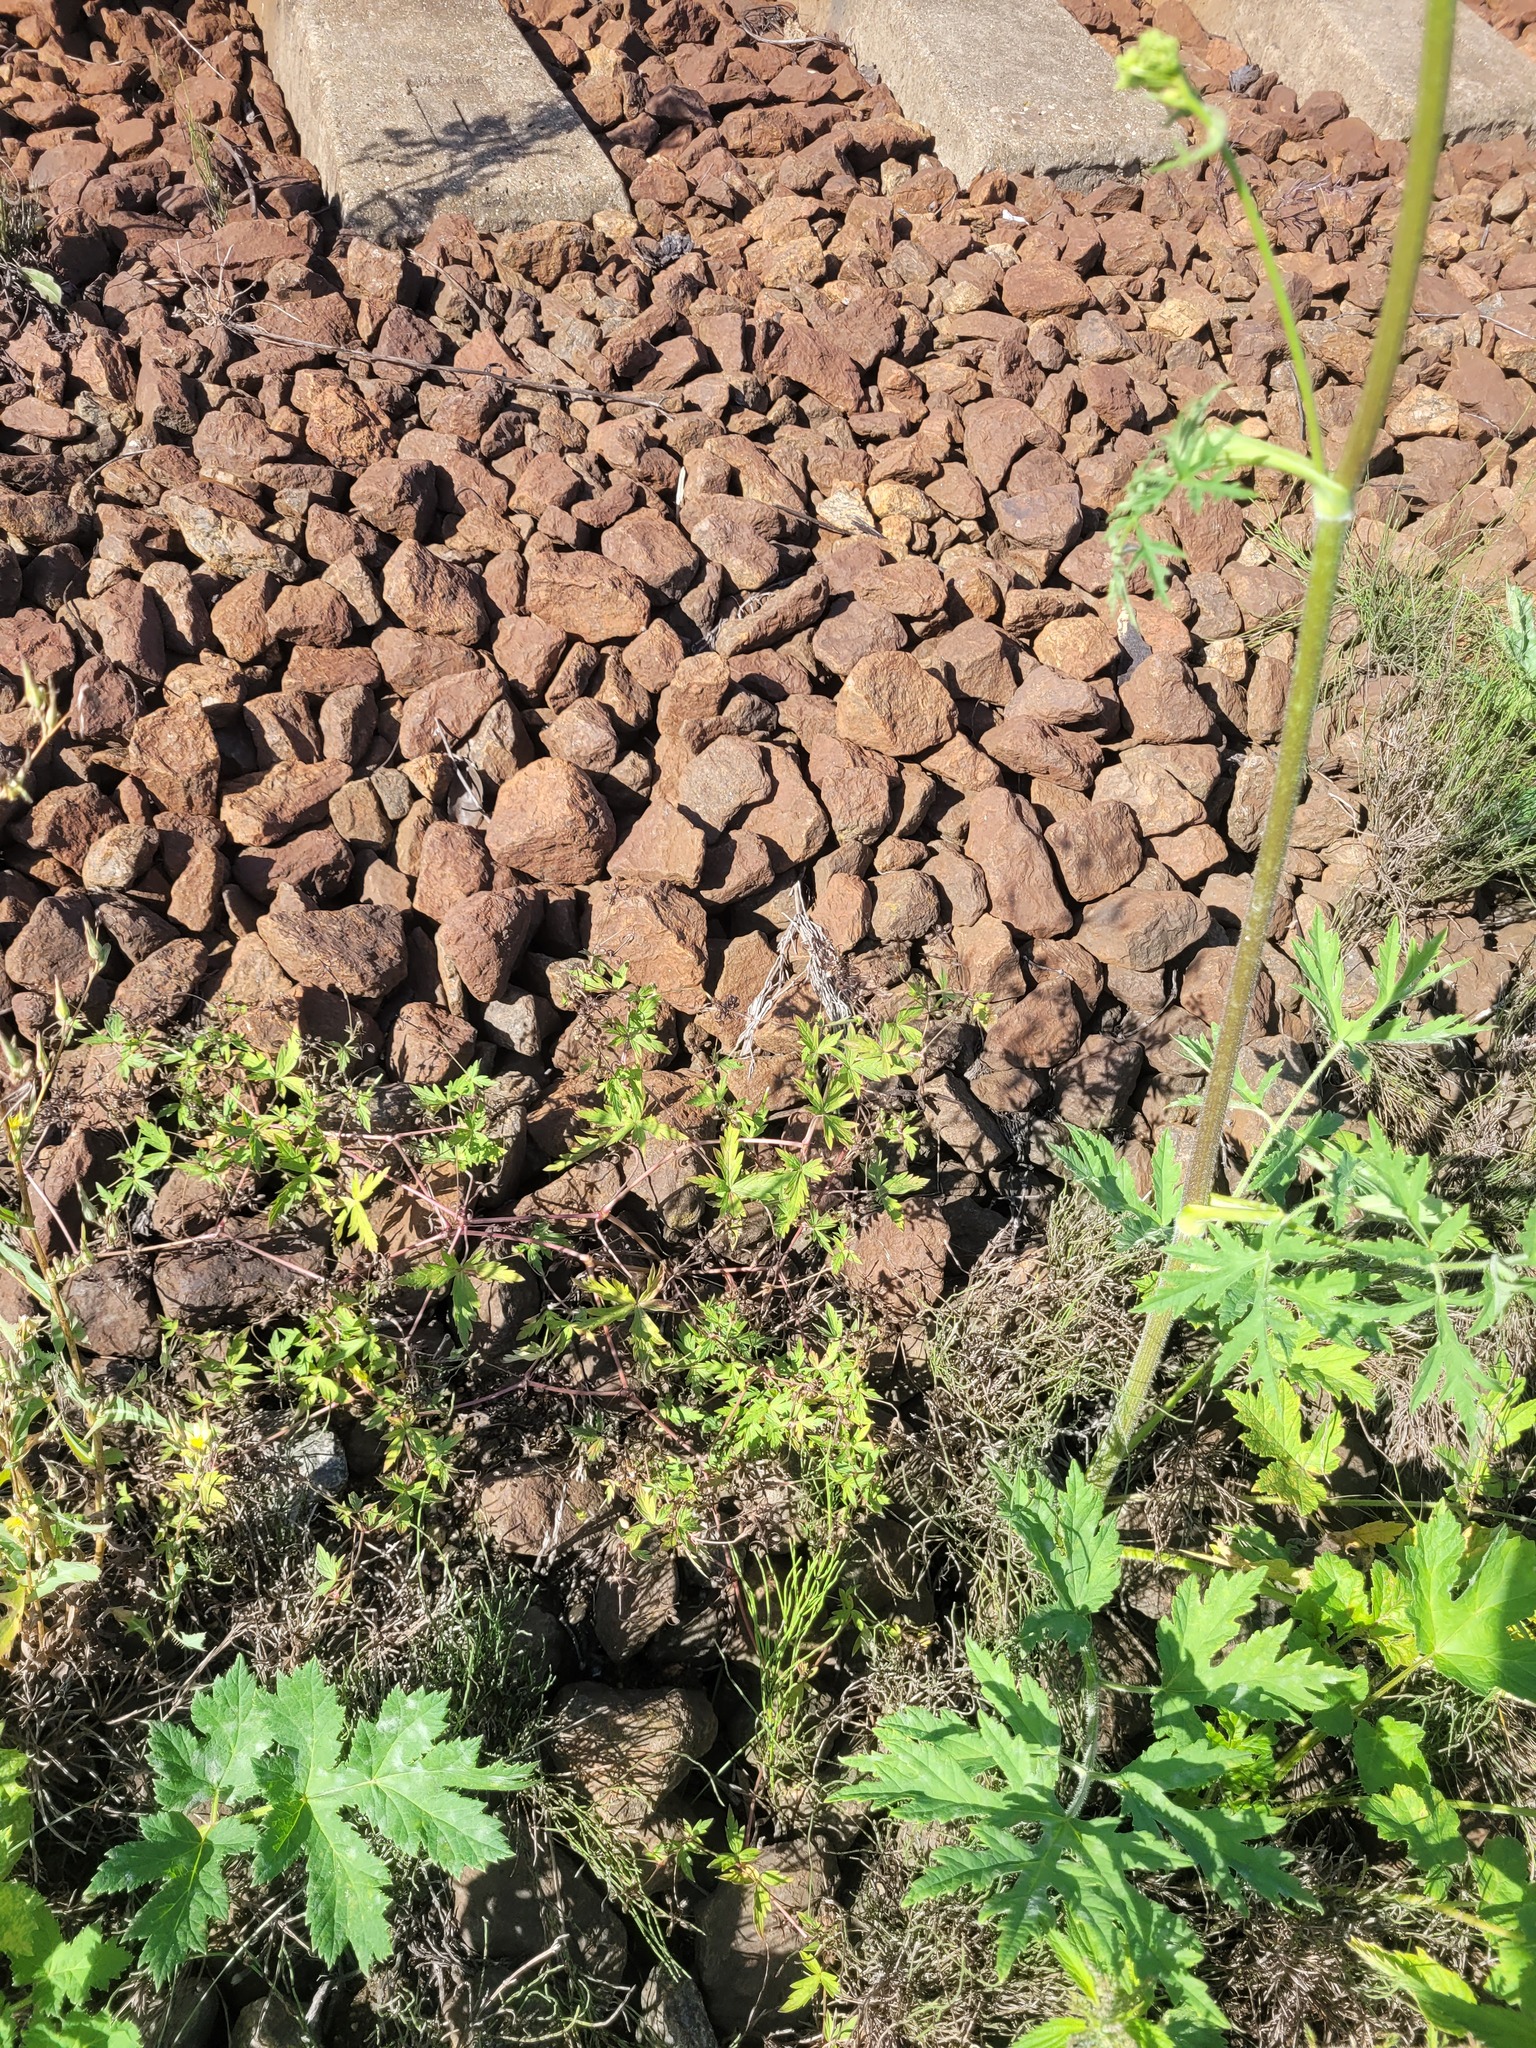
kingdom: Plantae
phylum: Tracheophyta
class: Magnoliopsida
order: Geraniales
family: Geraniaceae
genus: Geranium
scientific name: Geranium sibiricum
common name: Siberian crane's-bill
